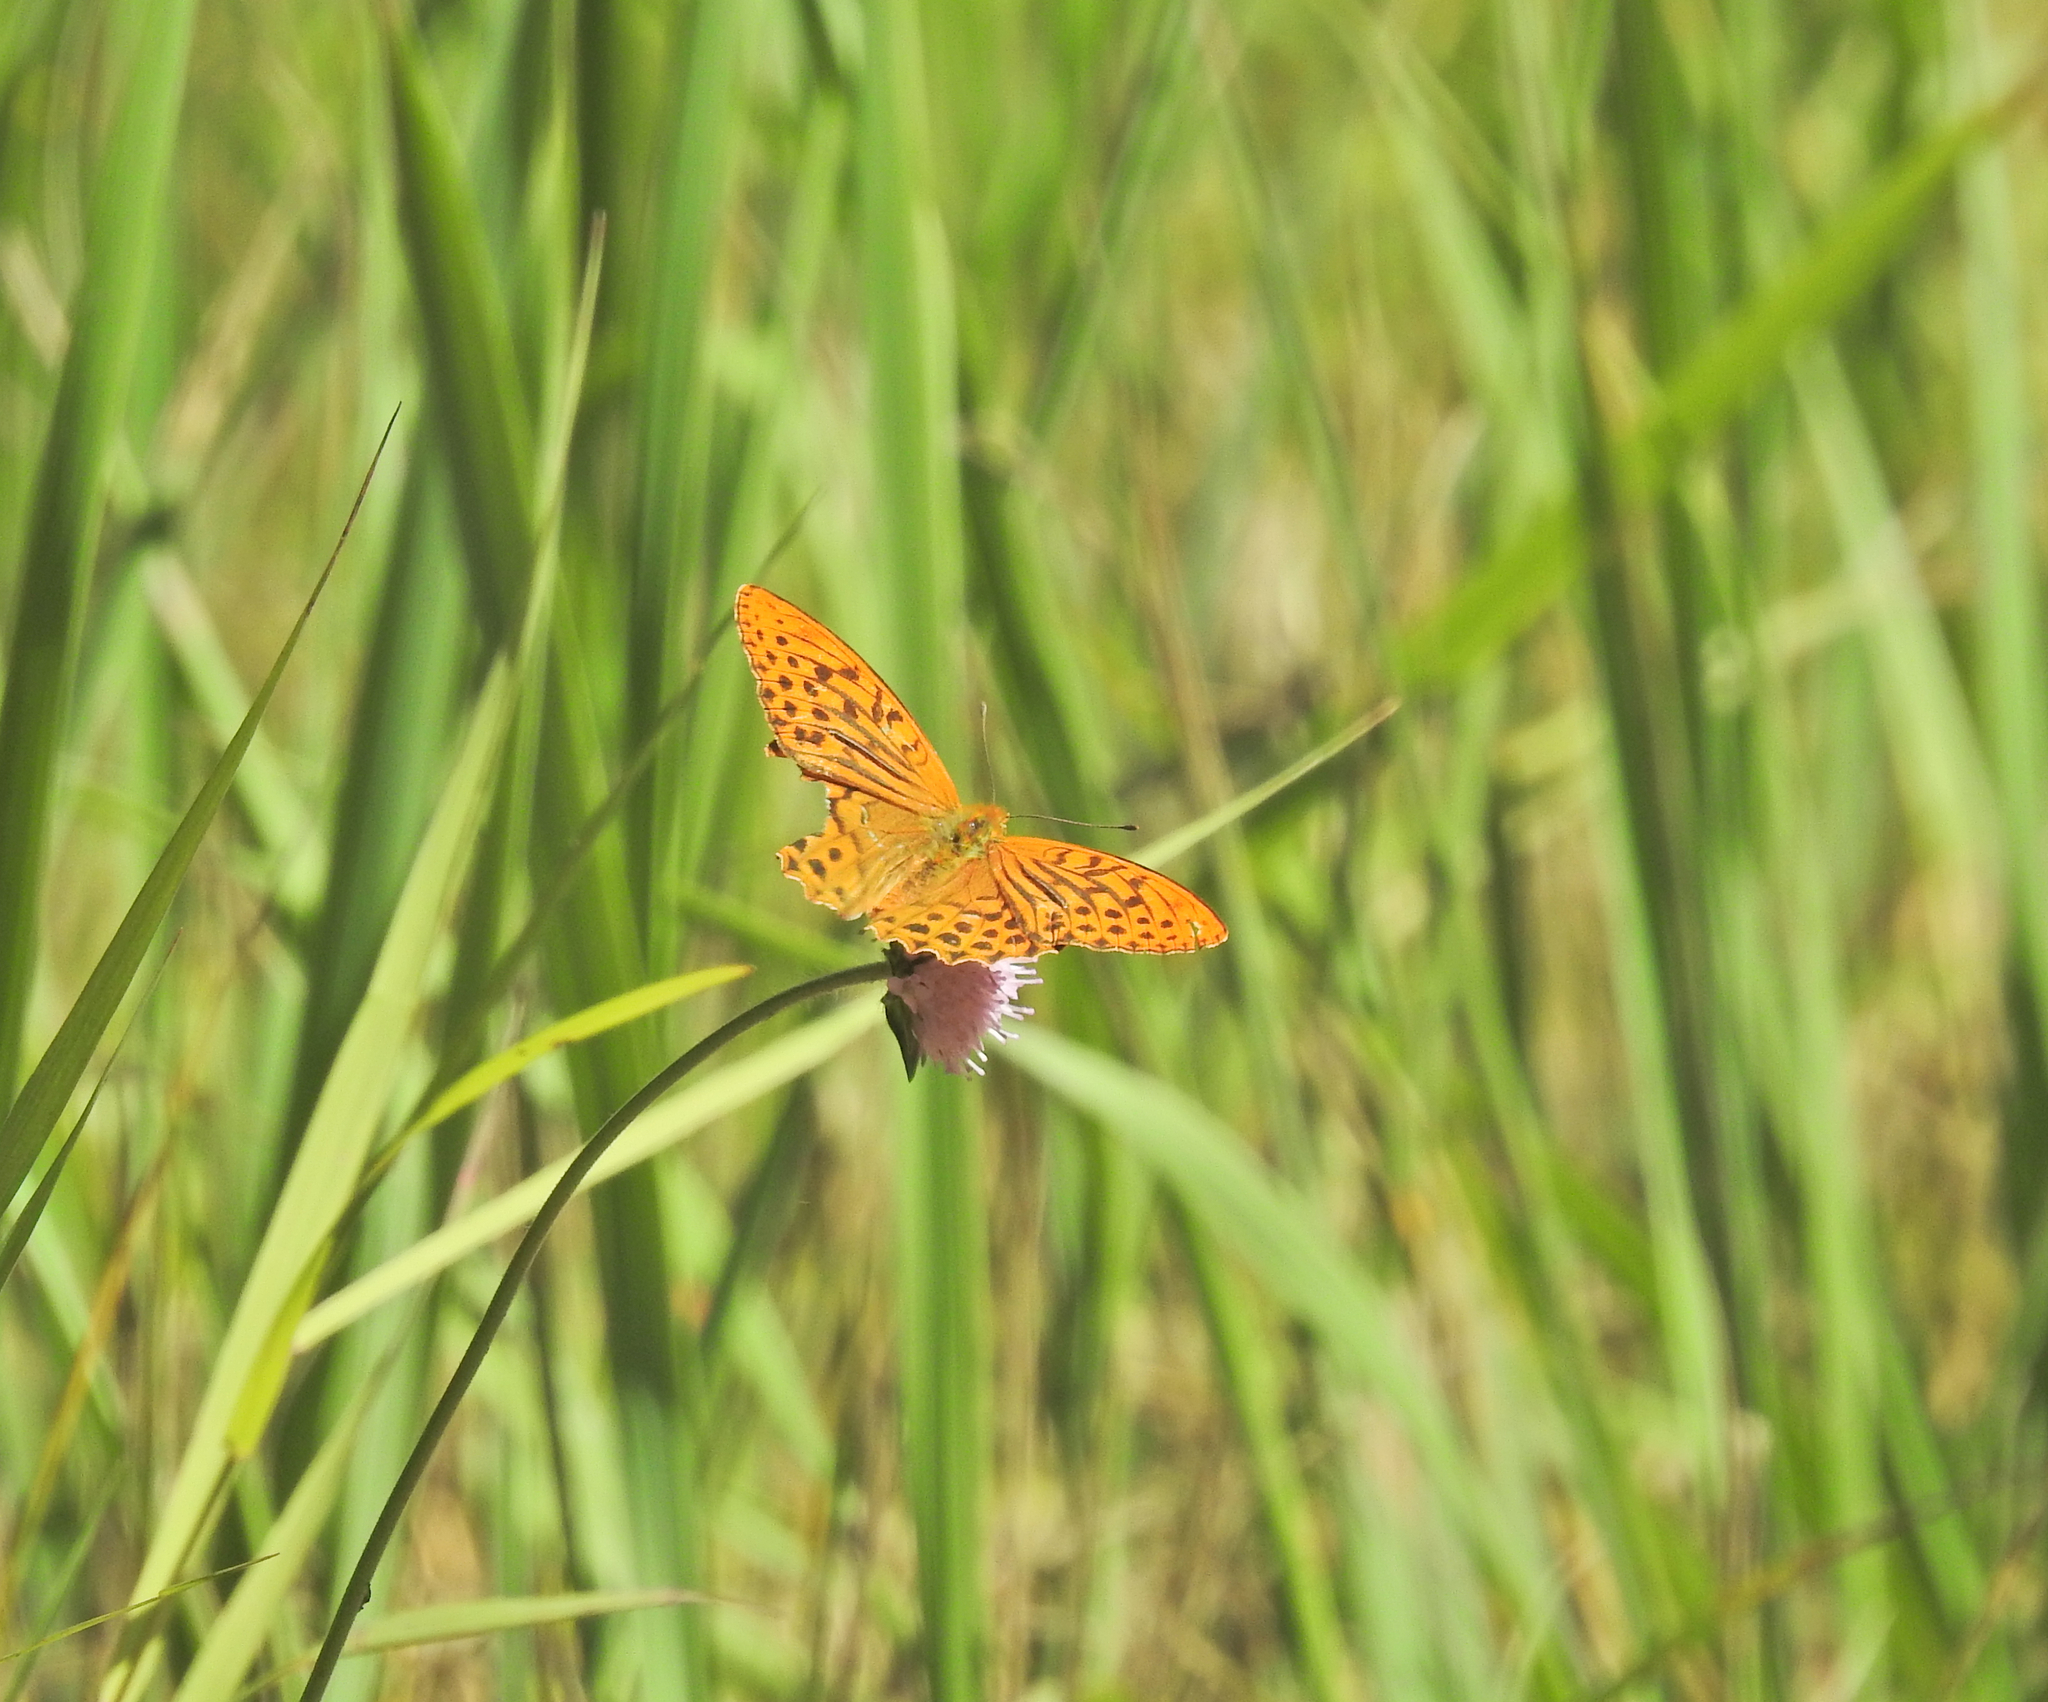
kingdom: Animalia
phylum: Arthropoda
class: Insecta
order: Lepidoptera
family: Nymphalidae
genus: Argynnis
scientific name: Argynnis paphia
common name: Silver-washed fritillary
